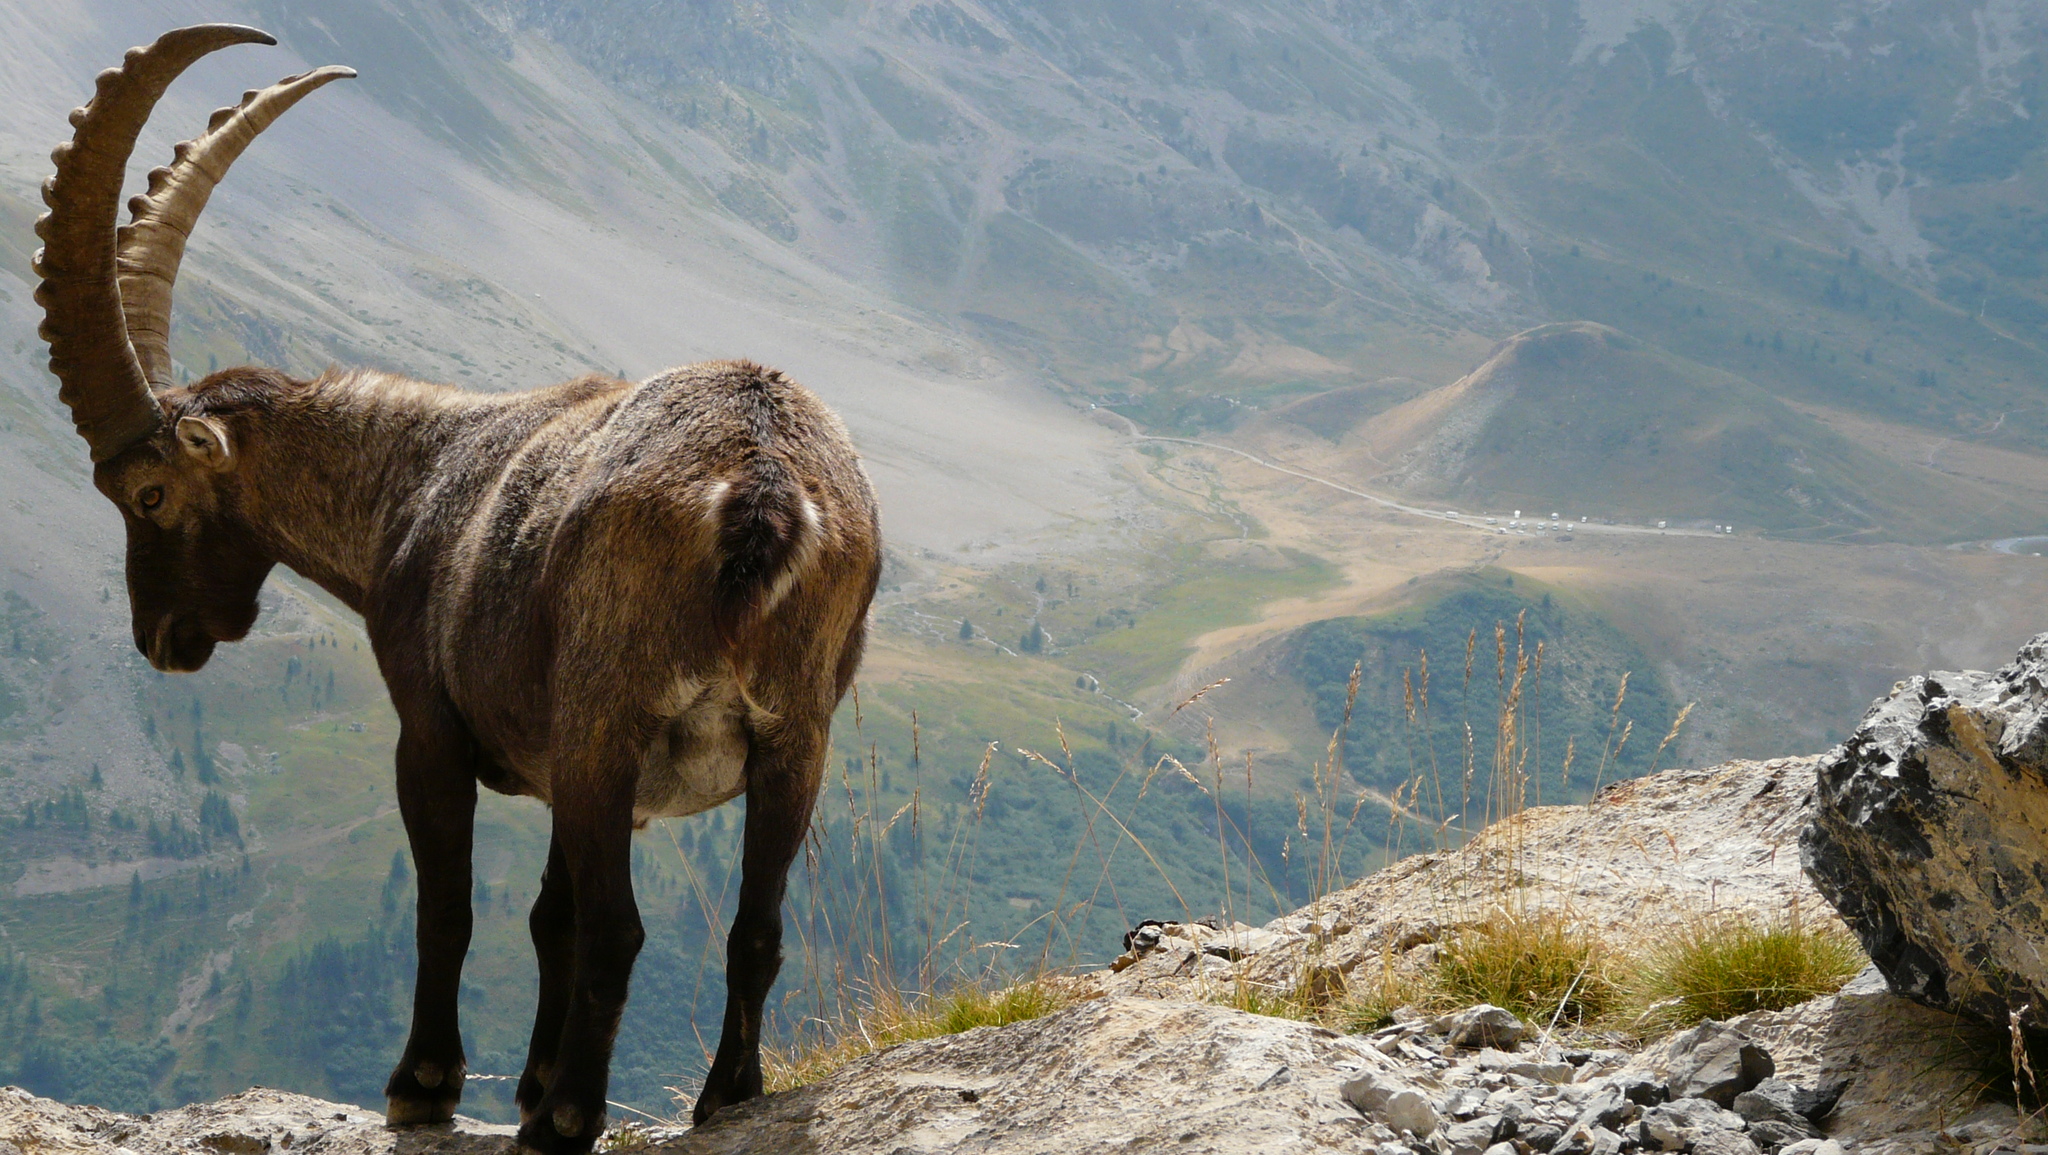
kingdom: Animalia
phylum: Chordata
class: Mammalia
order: Artiodactyla
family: Bovidae
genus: Capra
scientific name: Capra ibex
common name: Alpine ibex
